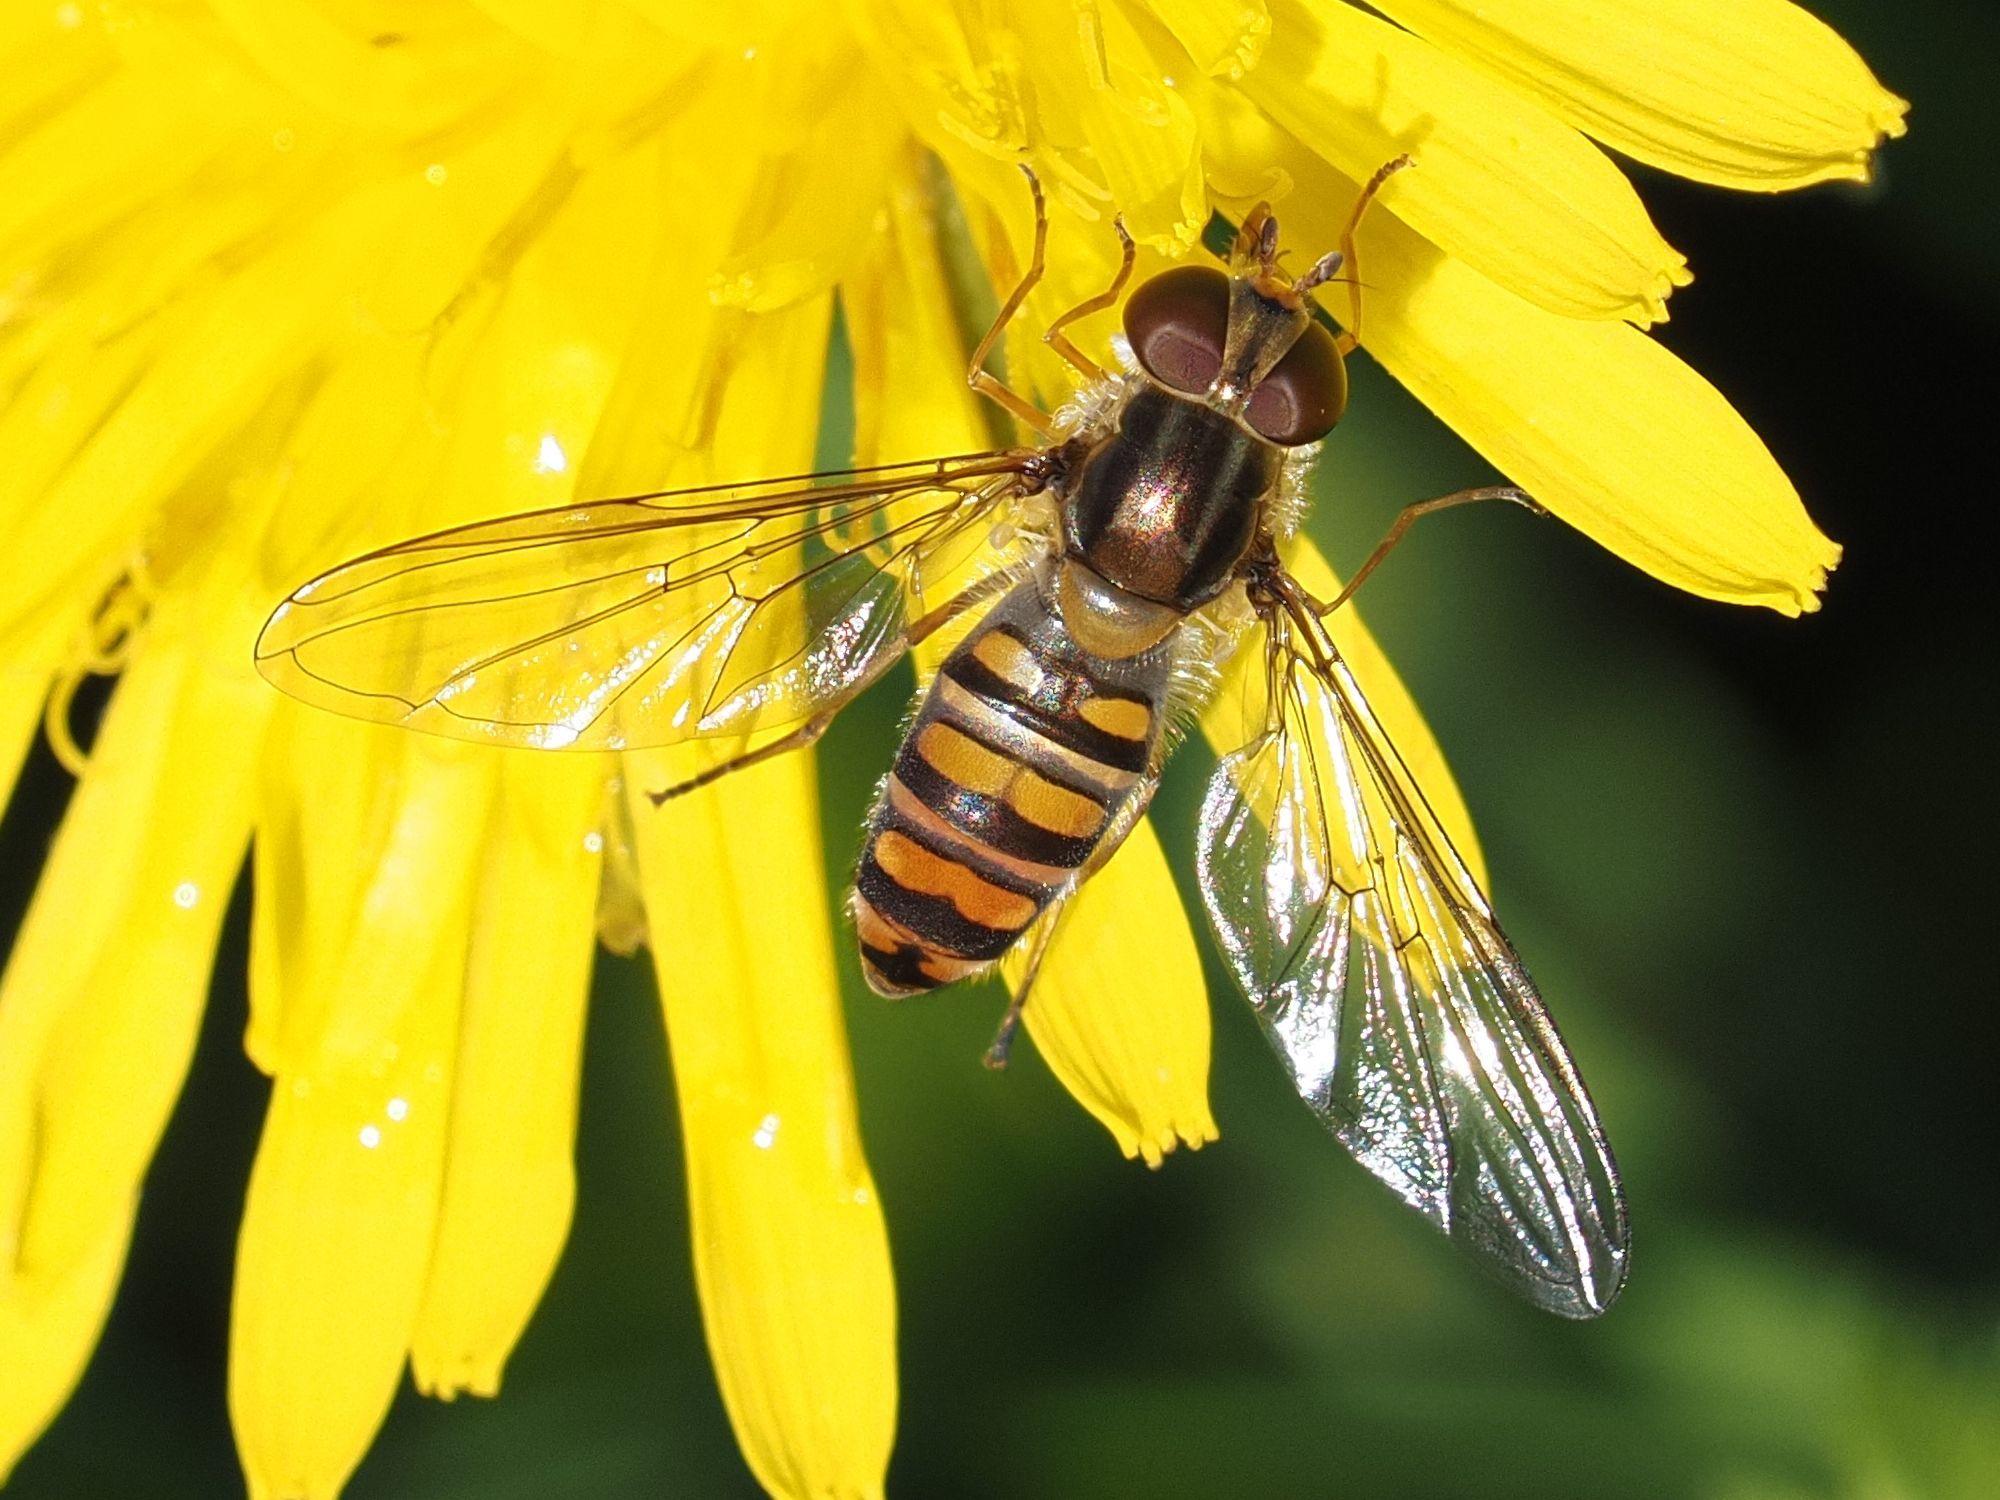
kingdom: Animalia
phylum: Arthropoda
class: Insecta
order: Diptera
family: Syrphidae
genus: Episyrphus
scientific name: Episyrphus balteatus
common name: Marmalade hoverfly
